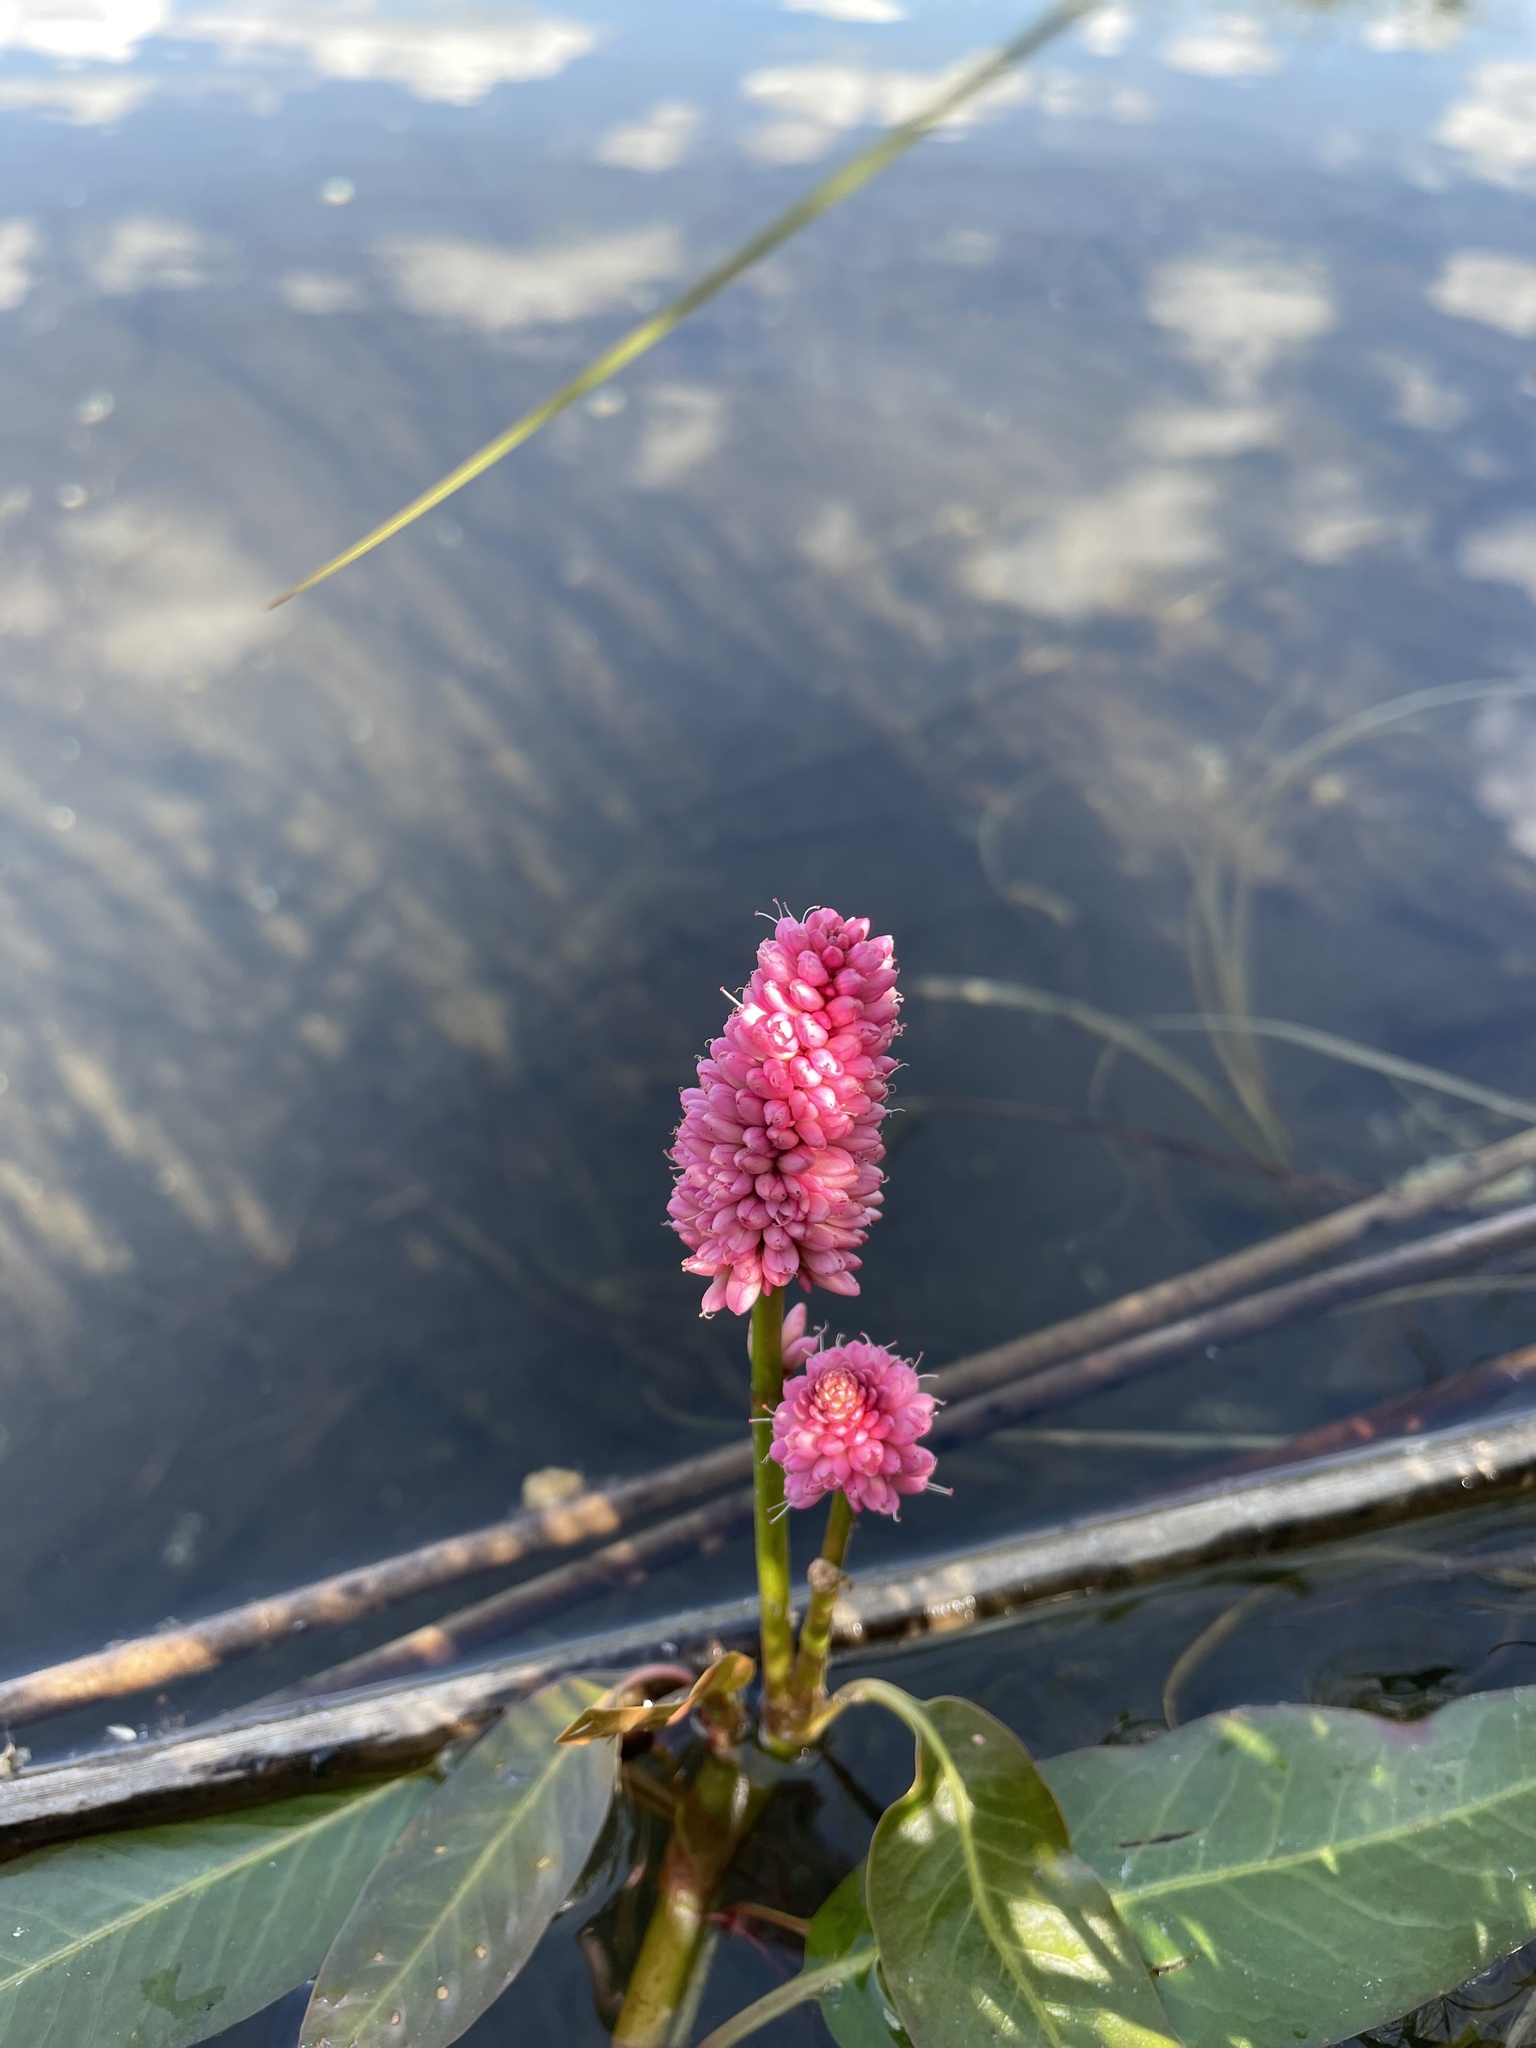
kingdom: Plantae
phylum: Tracheophyta
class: Magnoliopsida
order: Caryophyllales
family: Polygonaceae
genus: Persicaria
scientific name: Persicaria amphibia
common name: Amphibious bistort
